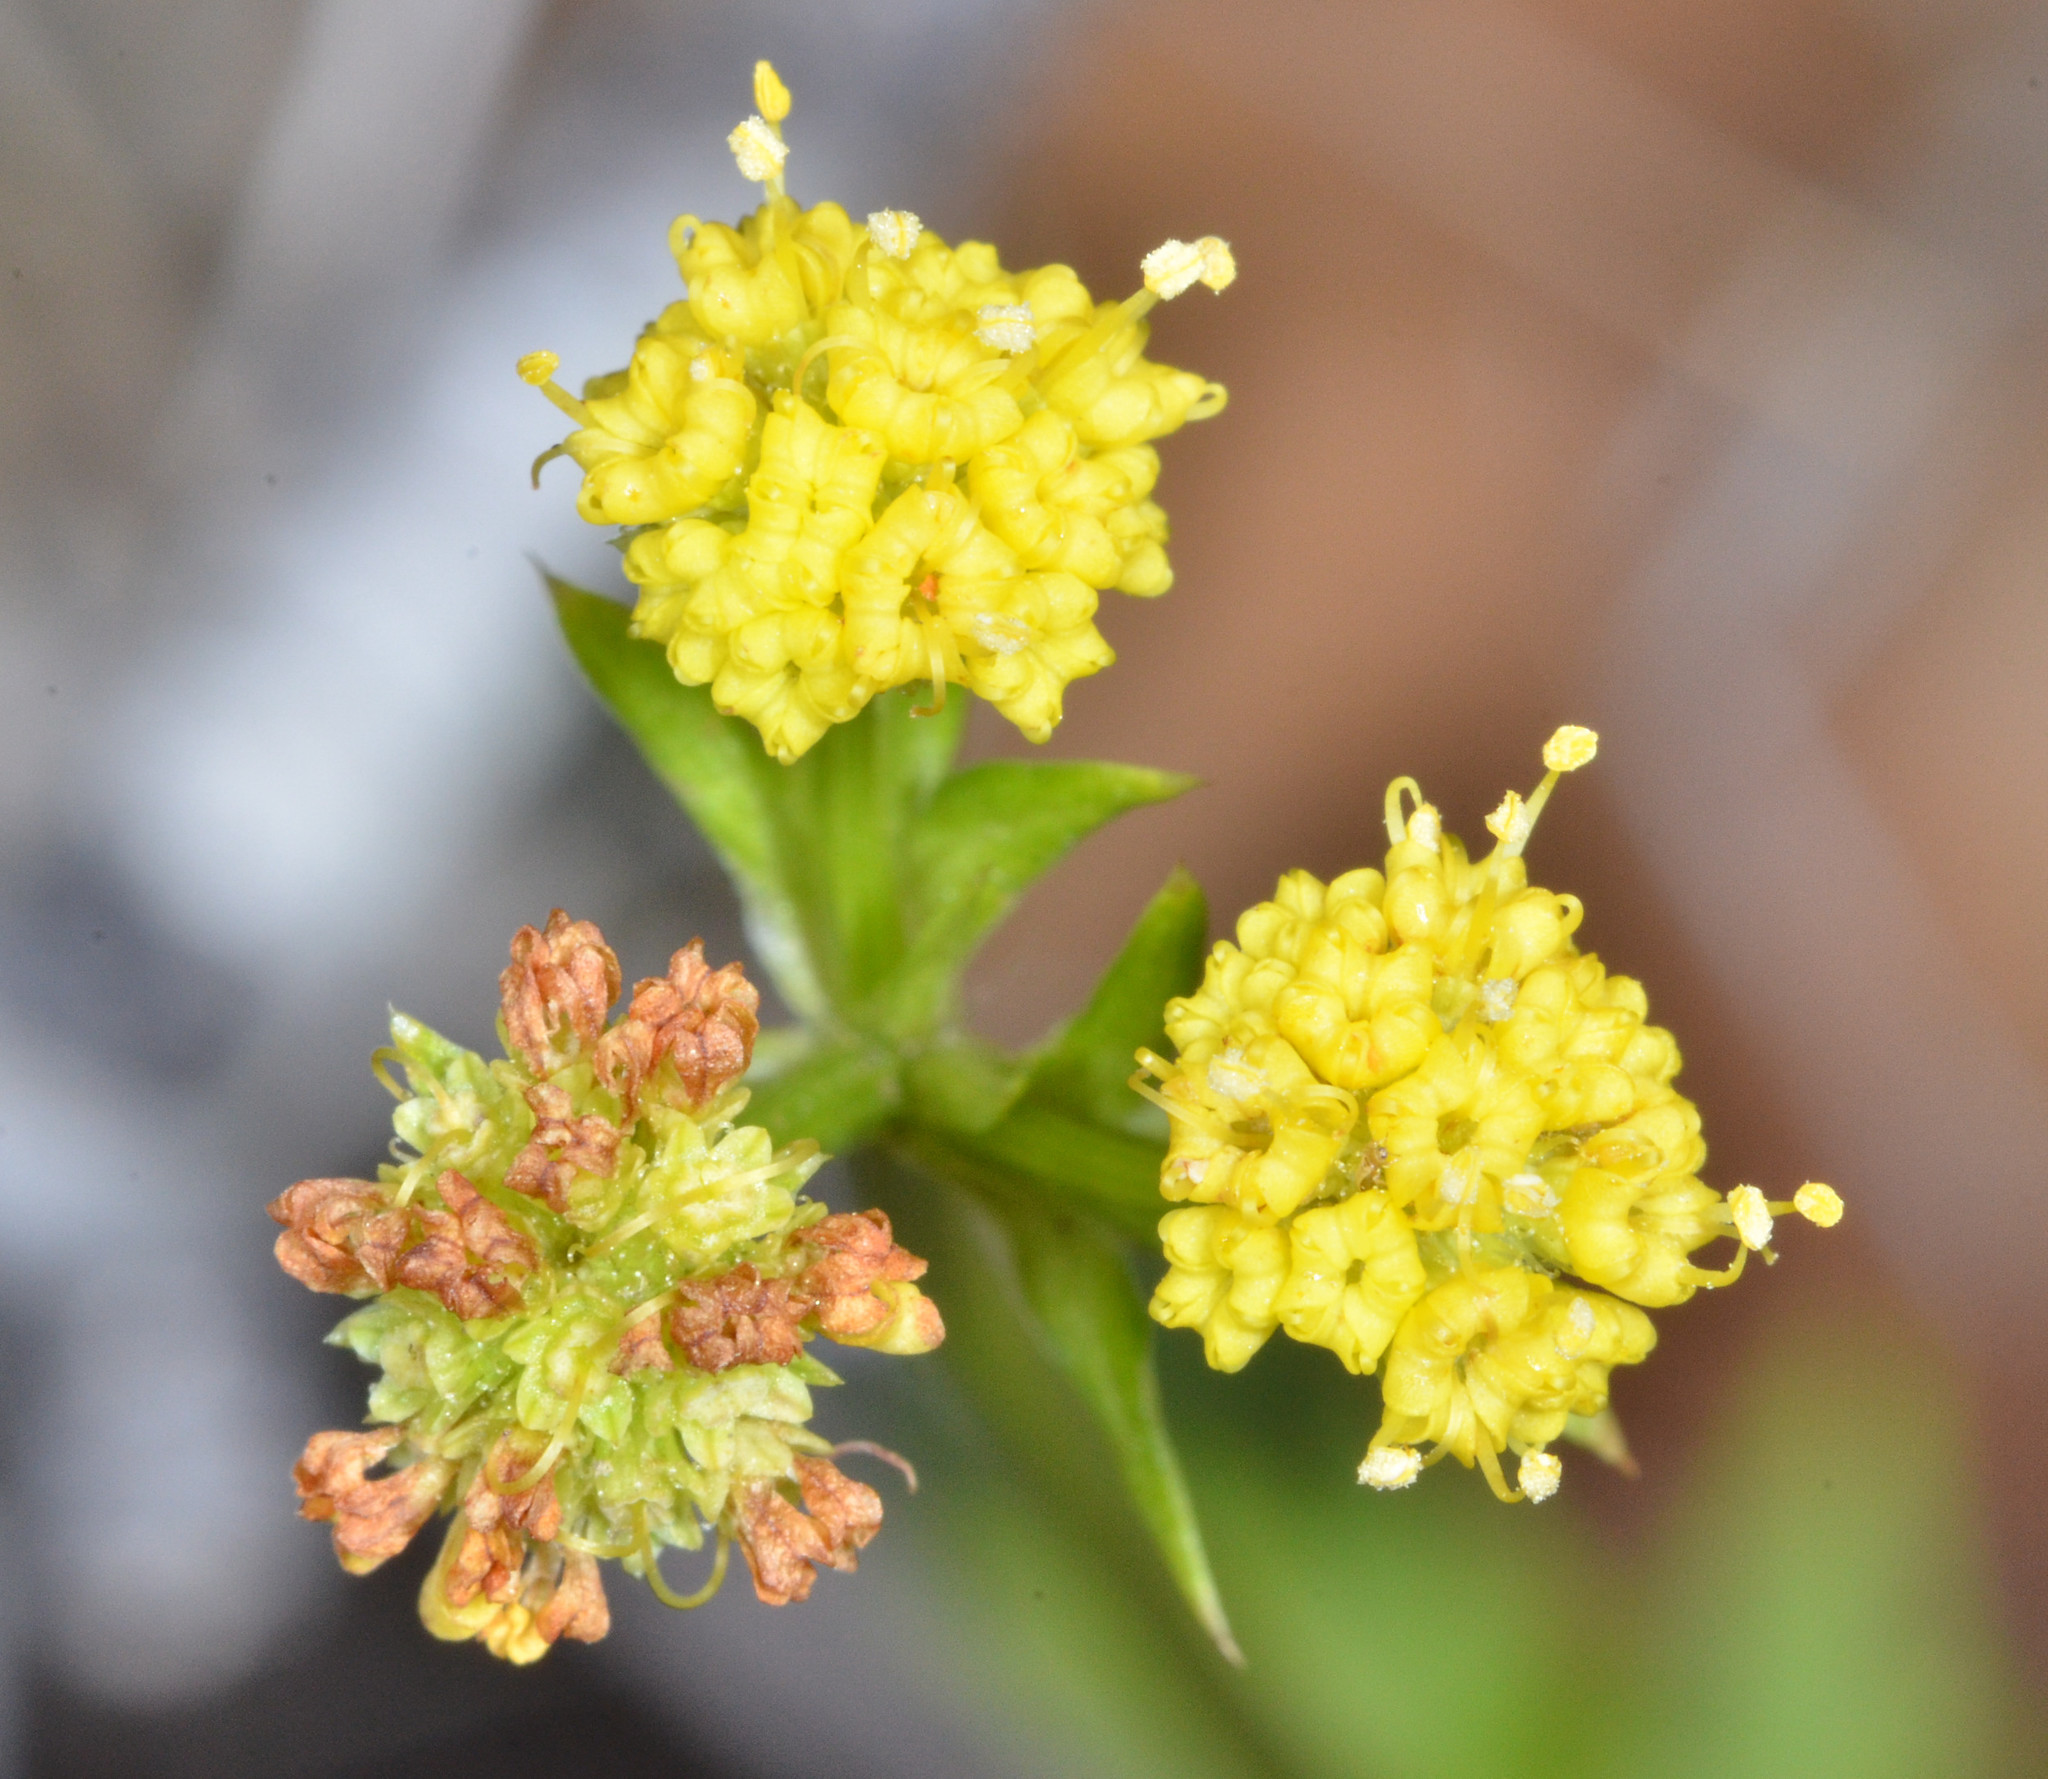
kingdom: Plantae
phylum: Tracheophyta
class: Magnoliopsida
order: Apiales
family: Apiaceae
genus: Sanicula
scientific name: Sanicula laciniata
